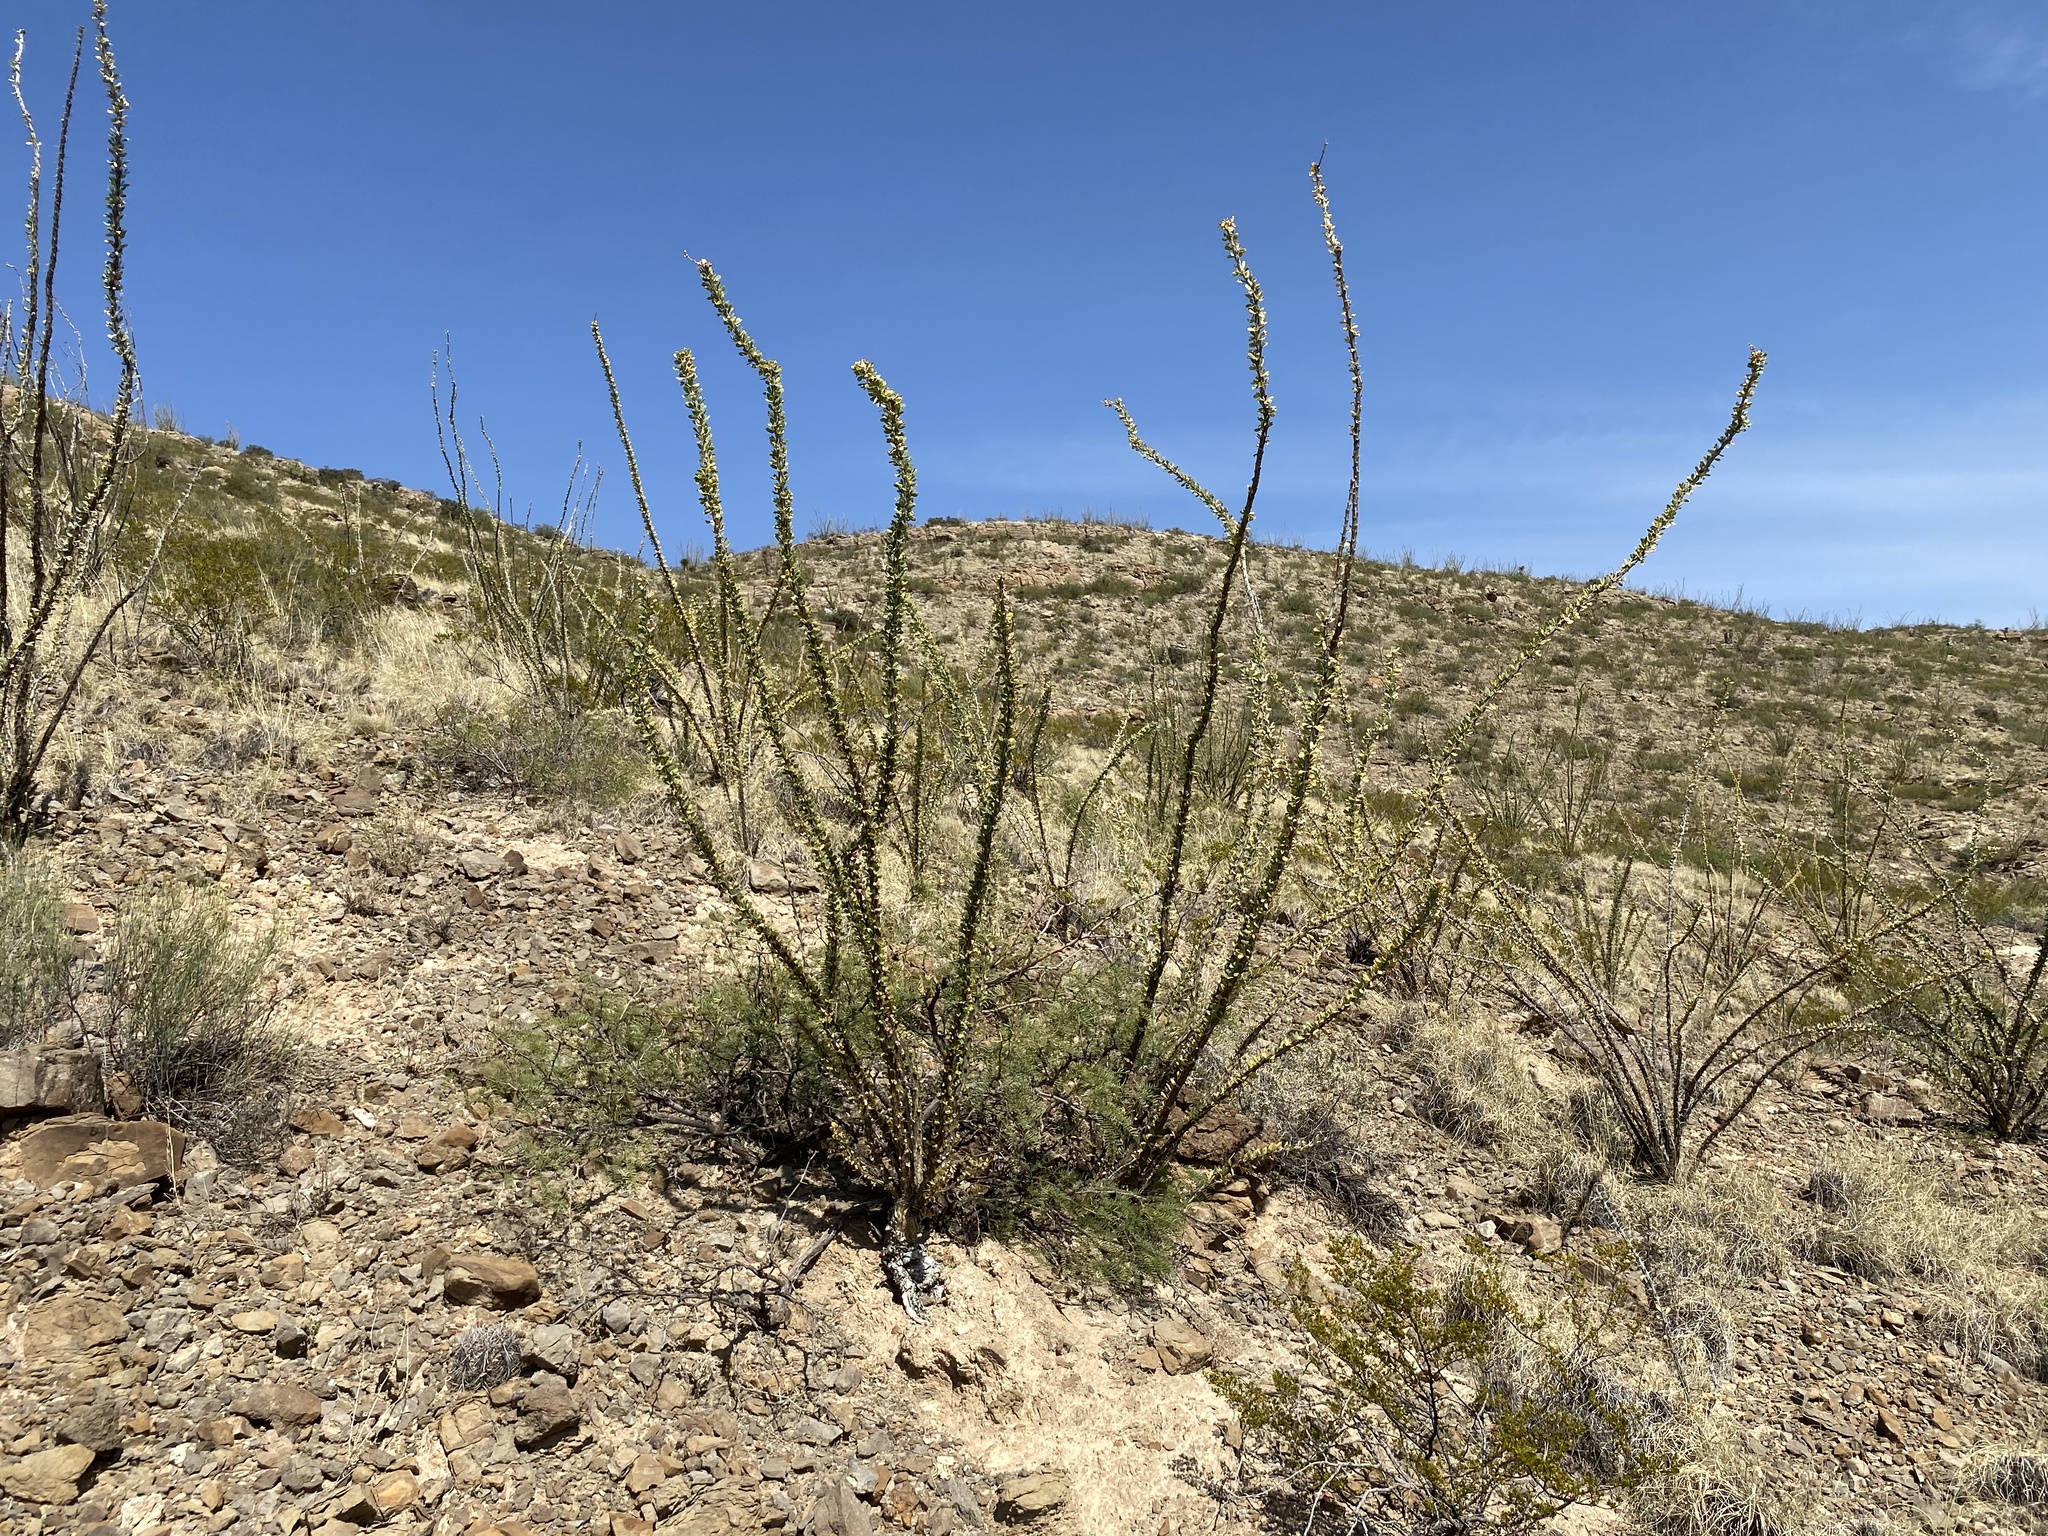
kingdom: Plantae
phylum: Tracheophyta
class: Magnoliopsida
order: Ericales
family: Fouquieriaceae
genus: Fouquieria
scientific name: Fouquieria splendens
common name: Vine-cactus
